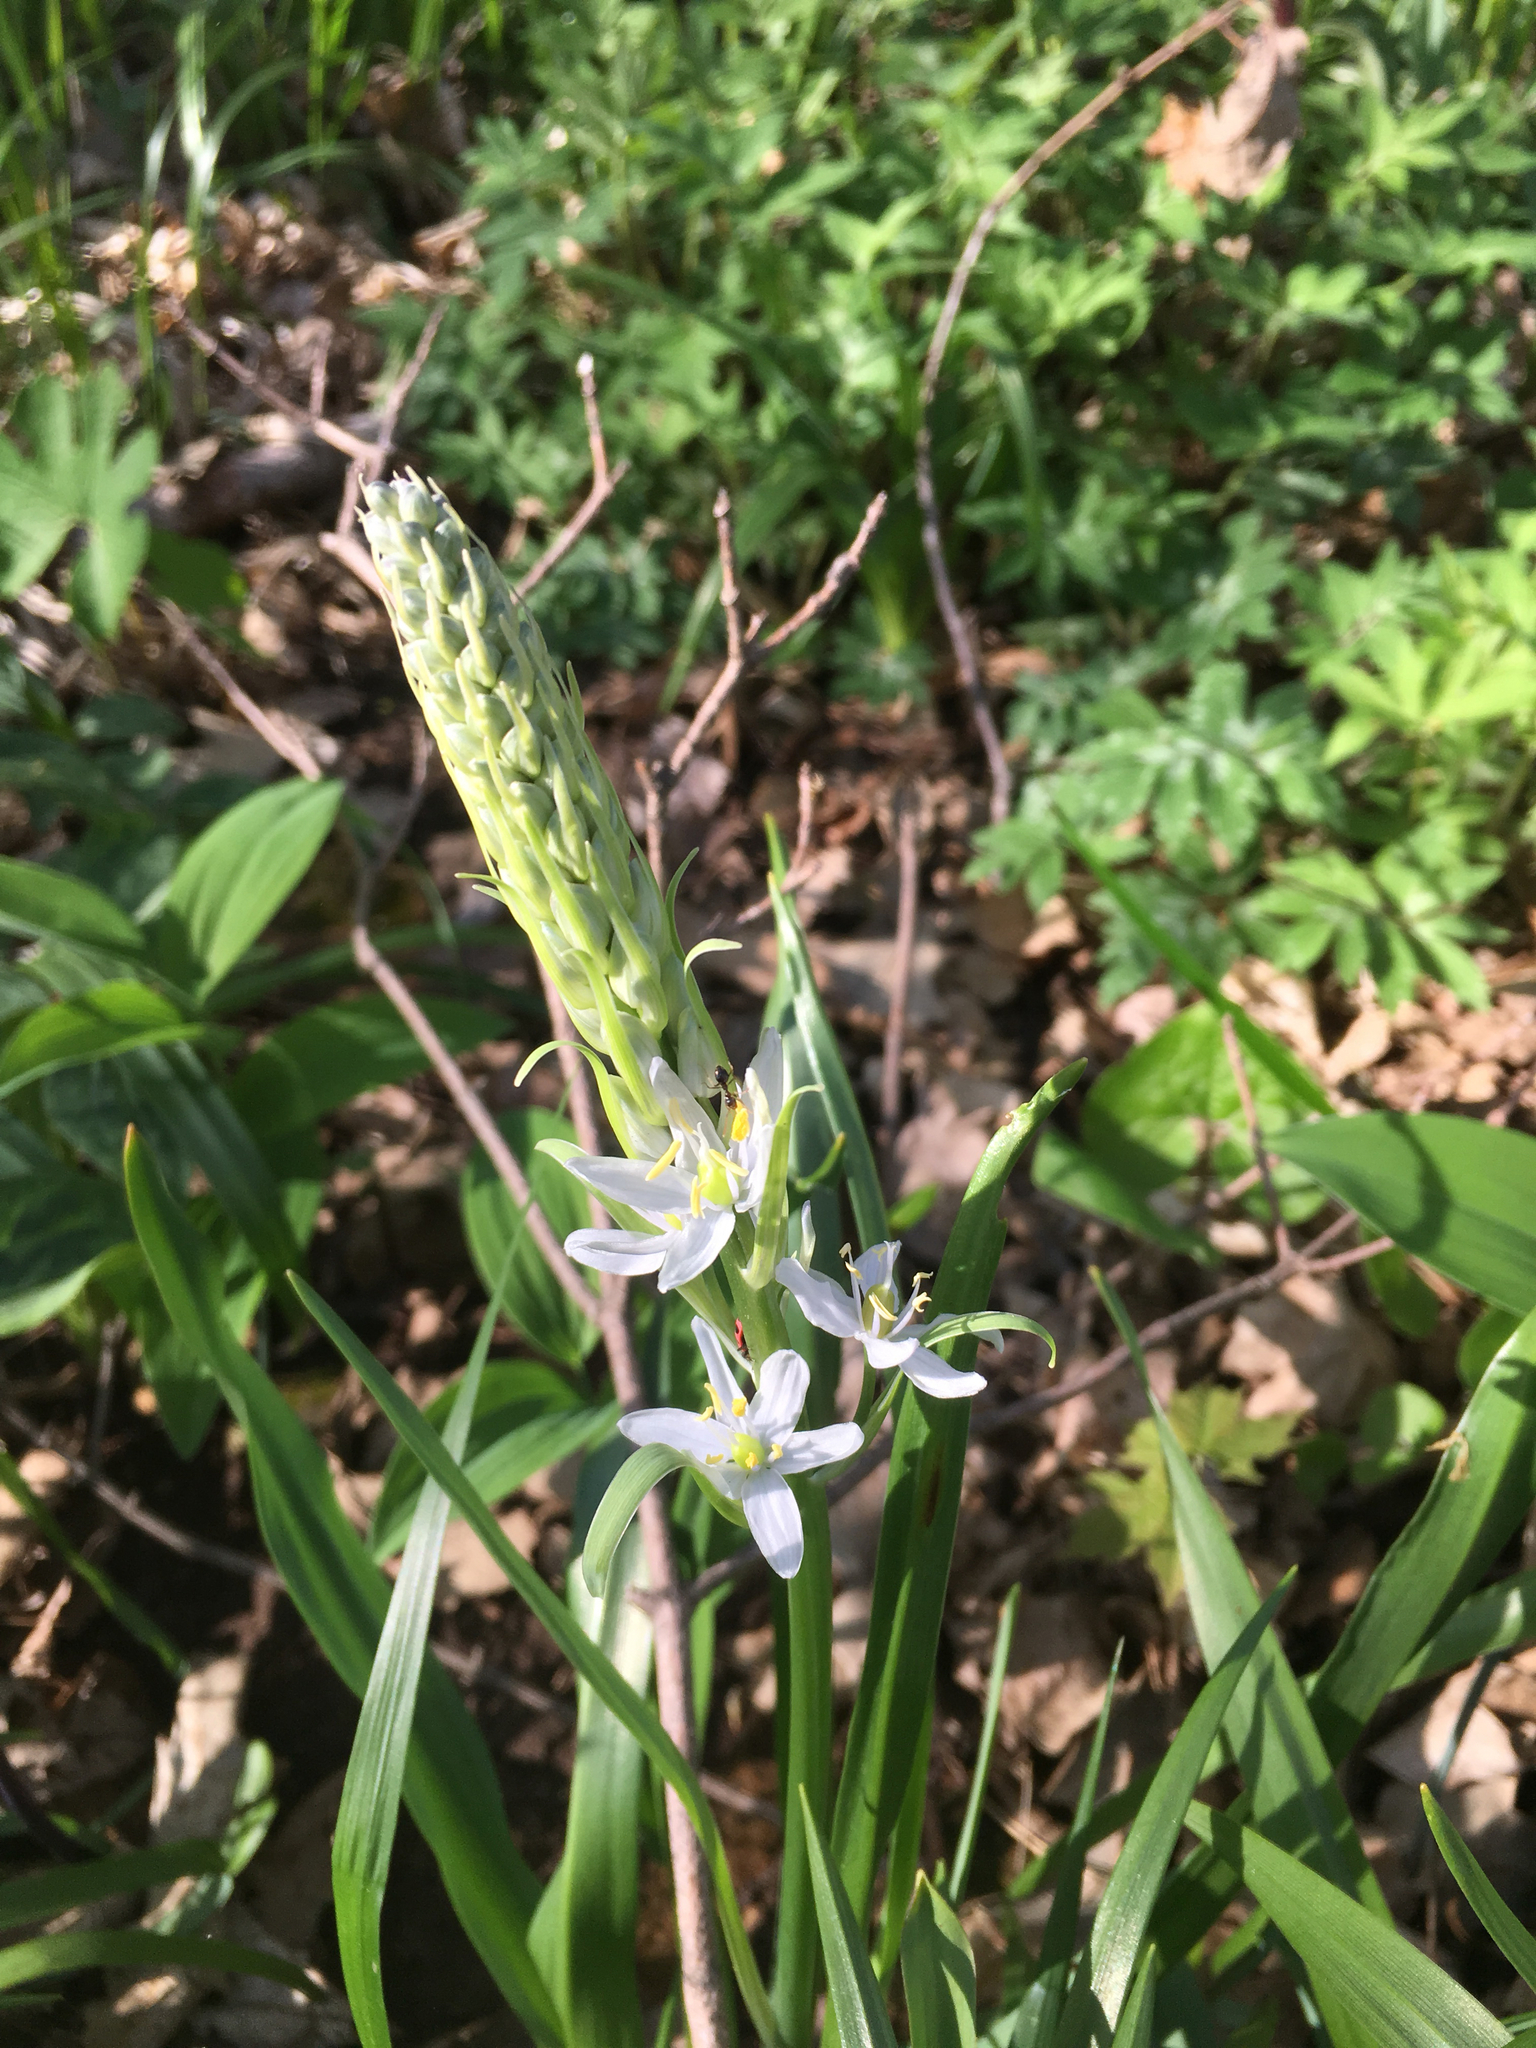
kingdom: Plantae
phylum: Tracheophyta
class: Liliopsida
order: Asparagales
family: Asparagaceae
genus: Camassia
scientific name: Camassia scilloides
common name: Wild hyacinth
